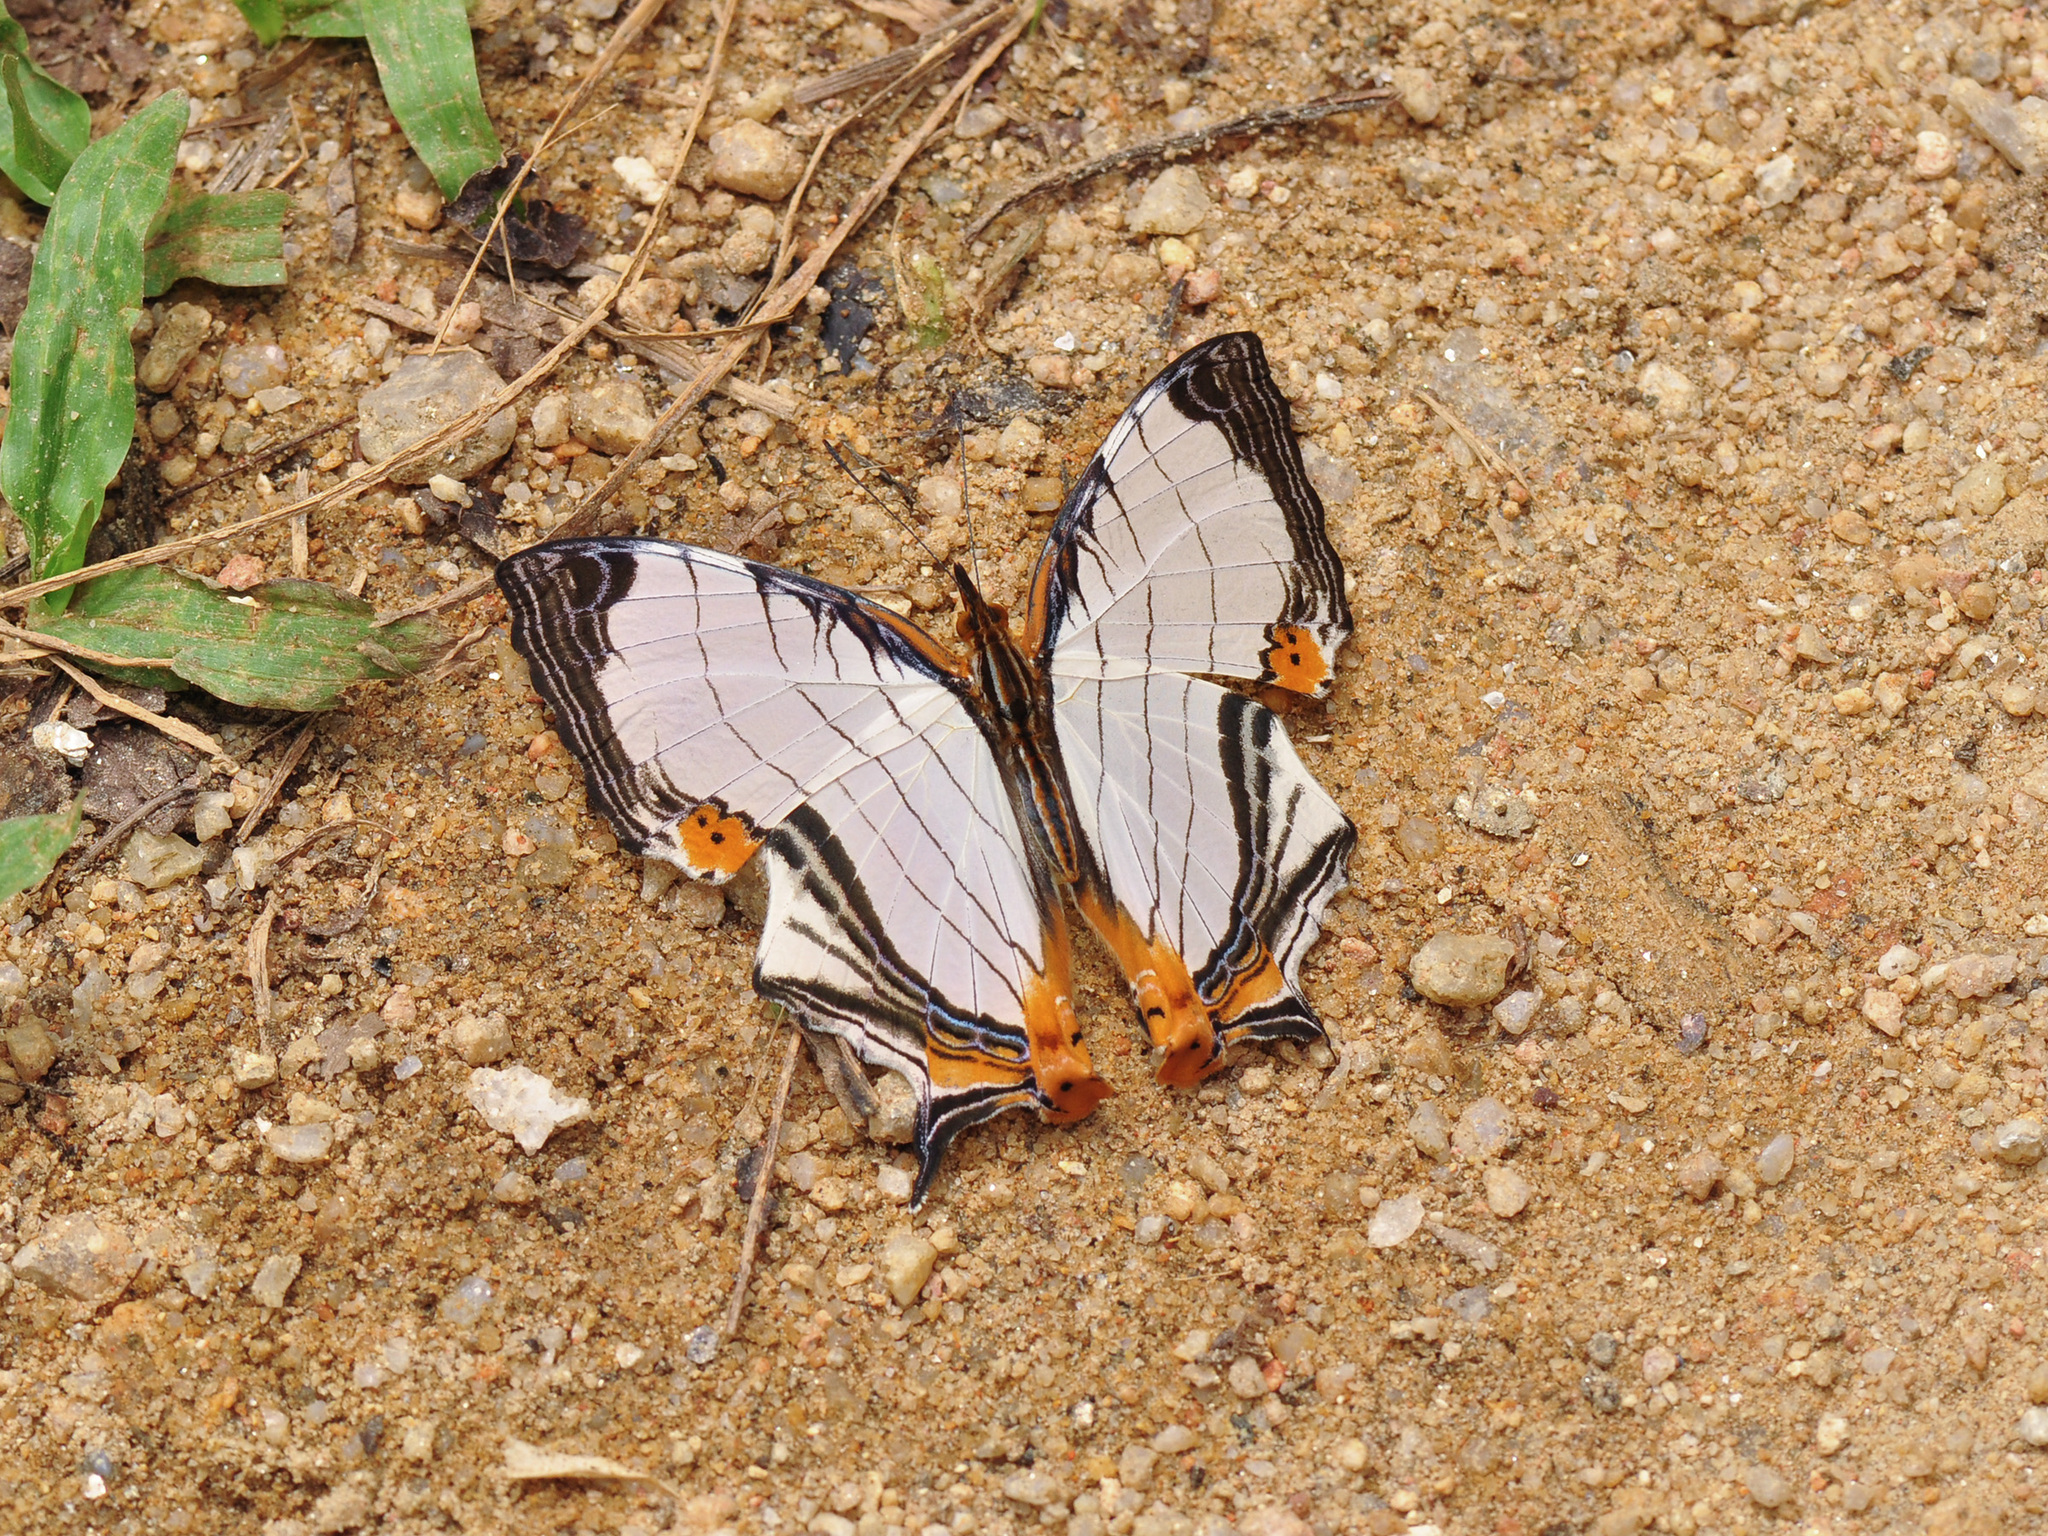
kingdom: Animalia
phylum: Arthropoda
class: Insecta
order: Lepidoptera
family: Nymphalidae
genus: Cyrestis
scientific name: Cyrestis nivea
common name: Straight line mapwing
